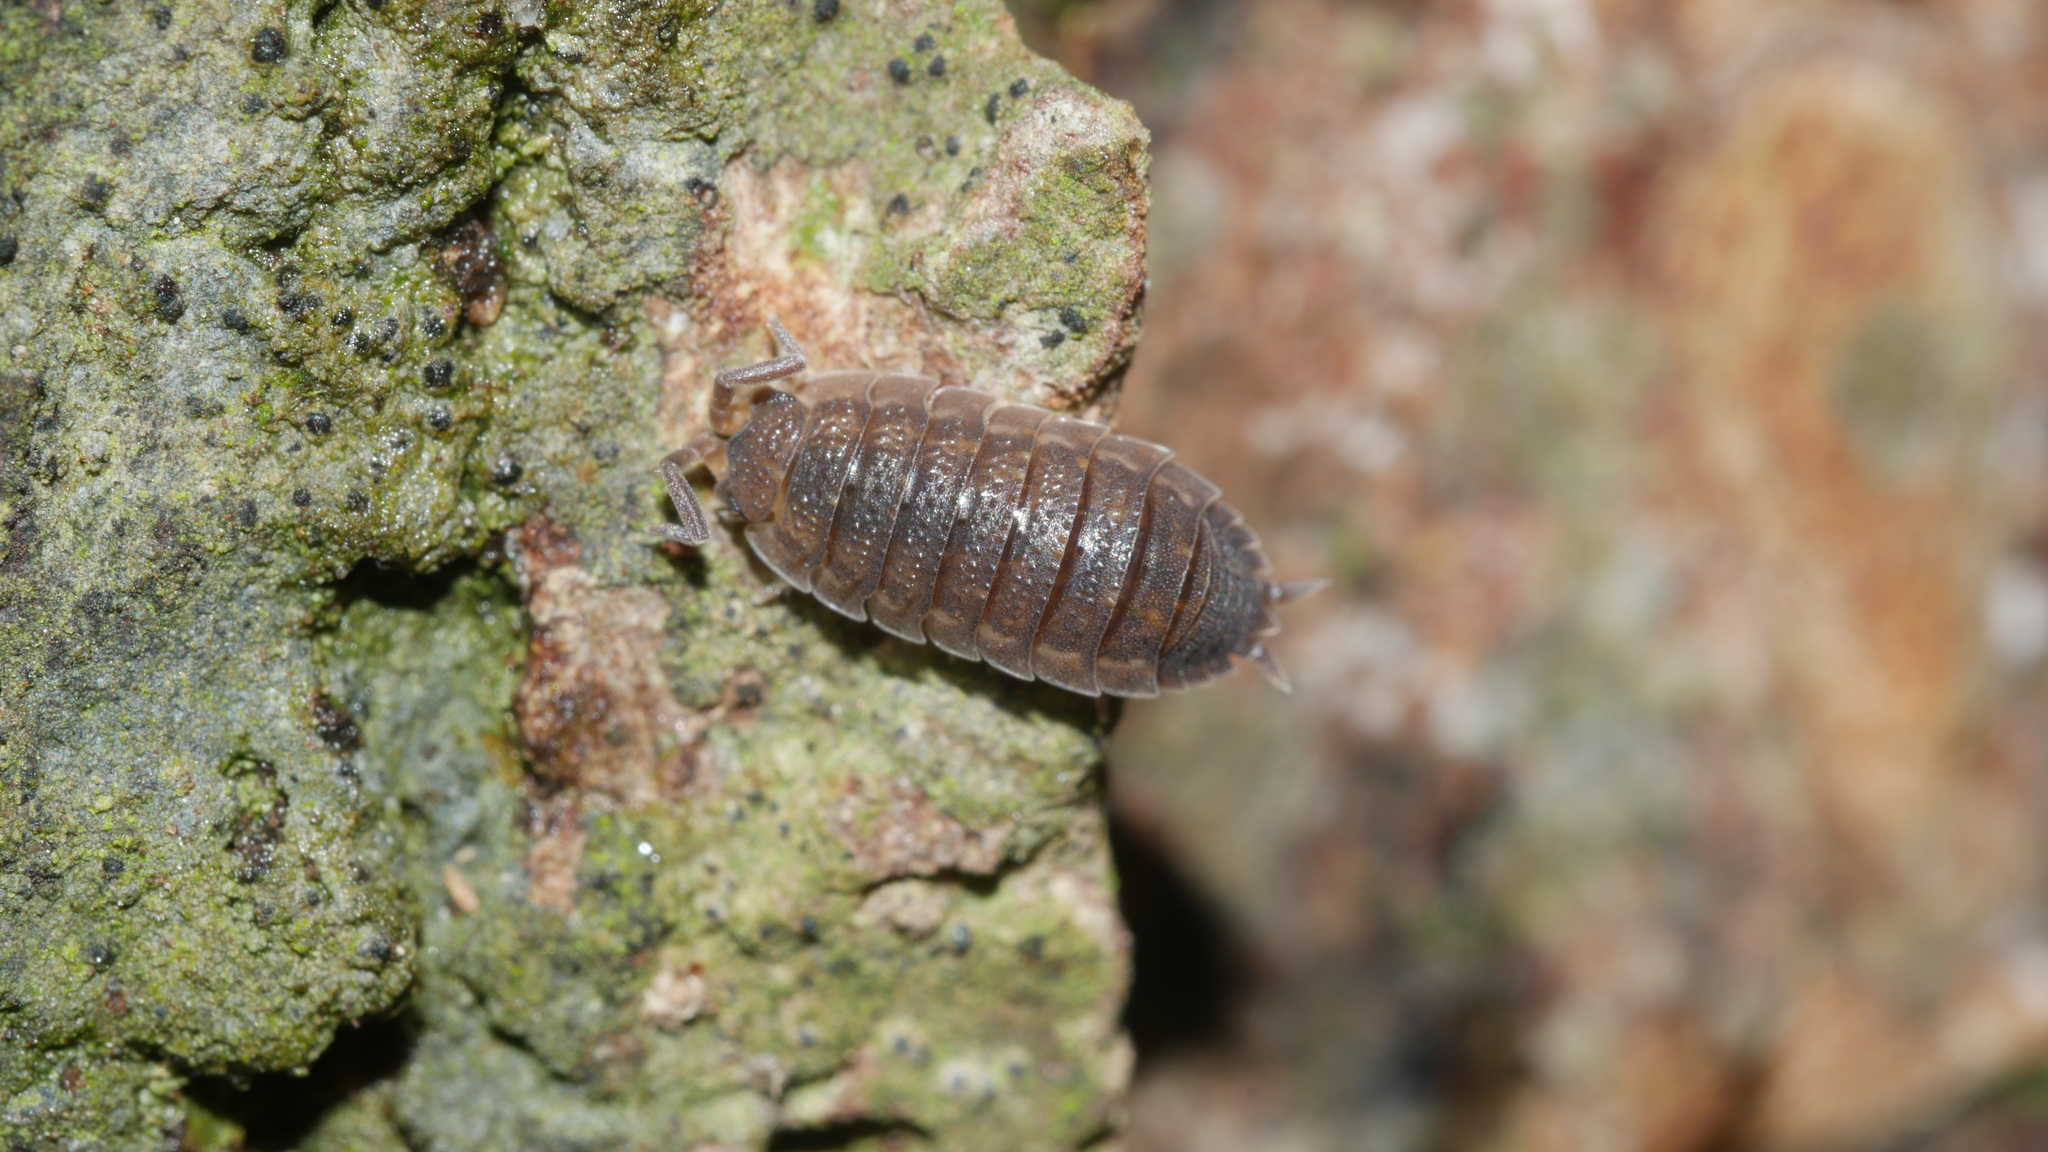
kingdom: Animalia
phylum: Arthropoda
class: Malacostraca
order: Isopoda
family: Porcellionidae
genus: Porcellio
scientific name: Porcellio scaber
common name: Common rough woodlouse
